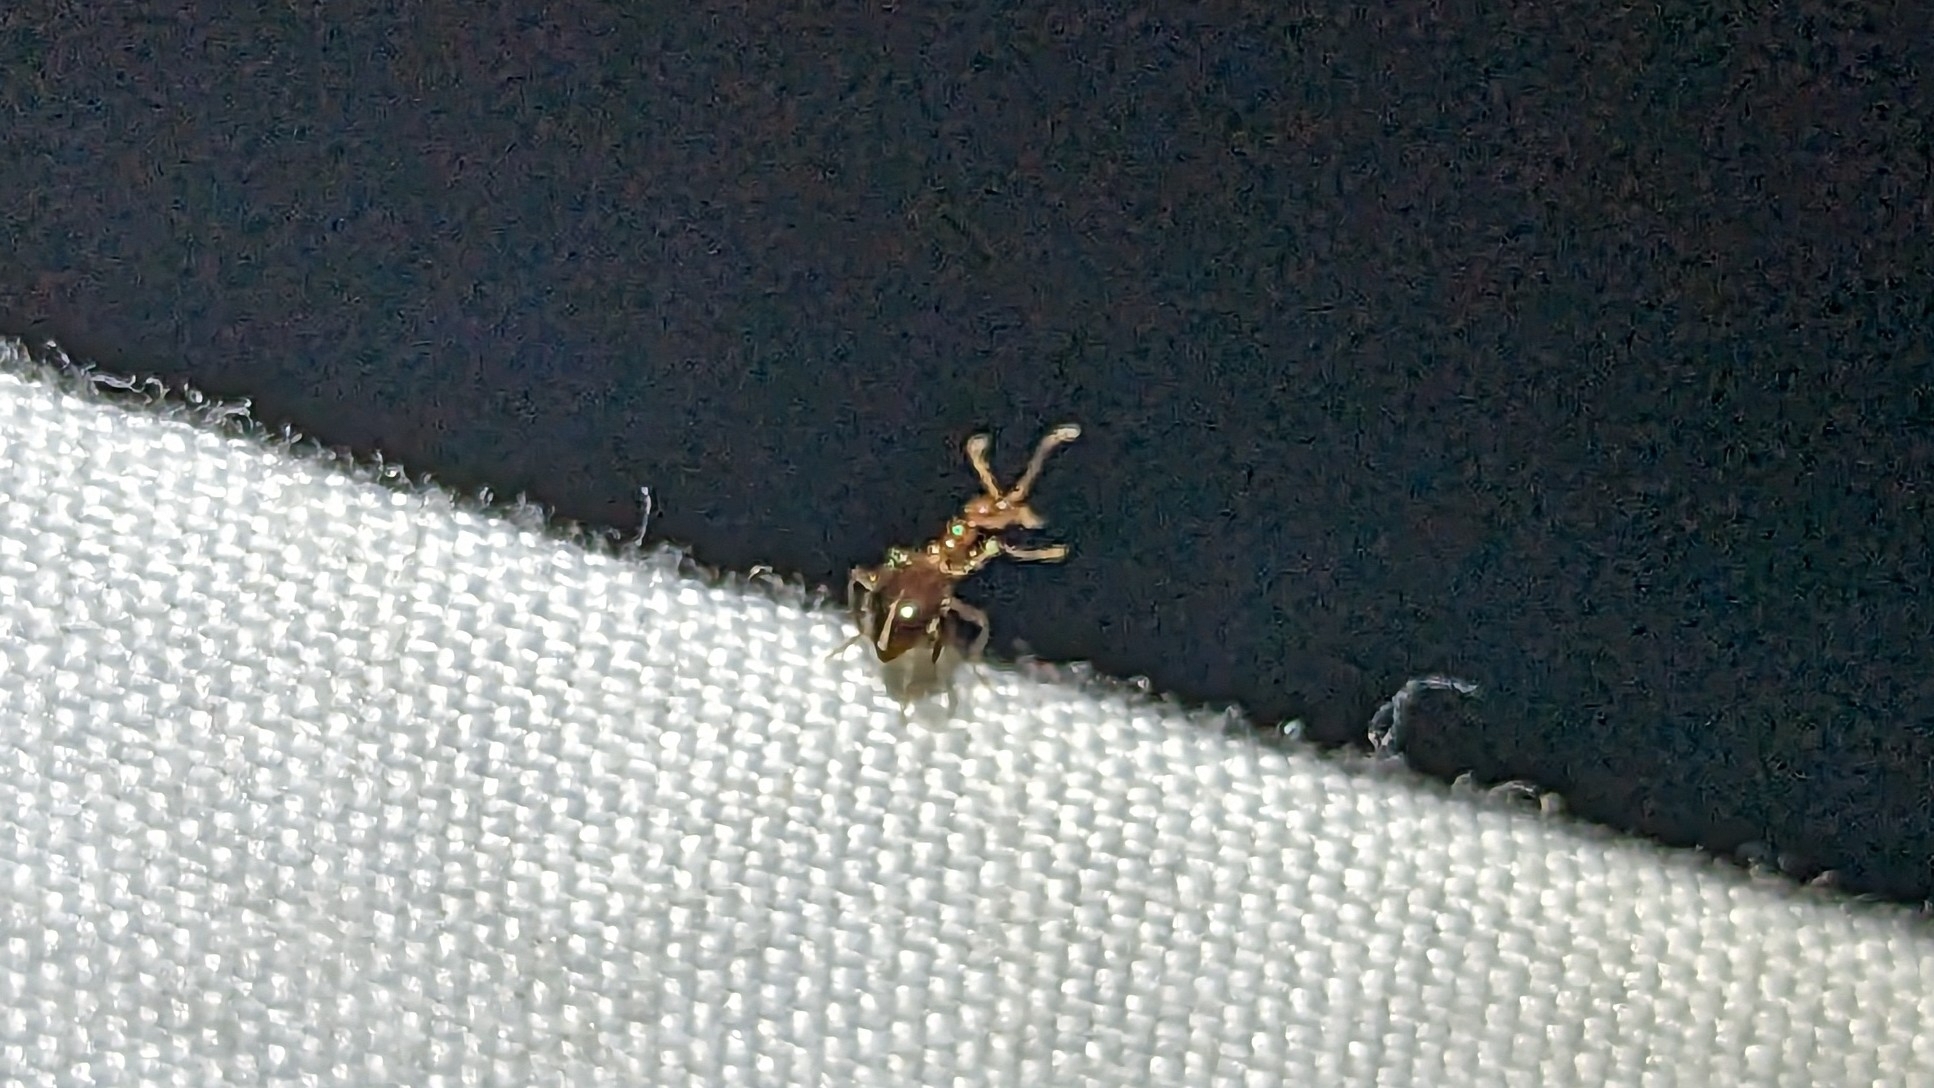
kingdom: Animalia
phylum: Arthropoda
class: Insecta
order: Coleoptera
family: Anthicidae
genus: Acanthinus
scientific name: Acanthinus
